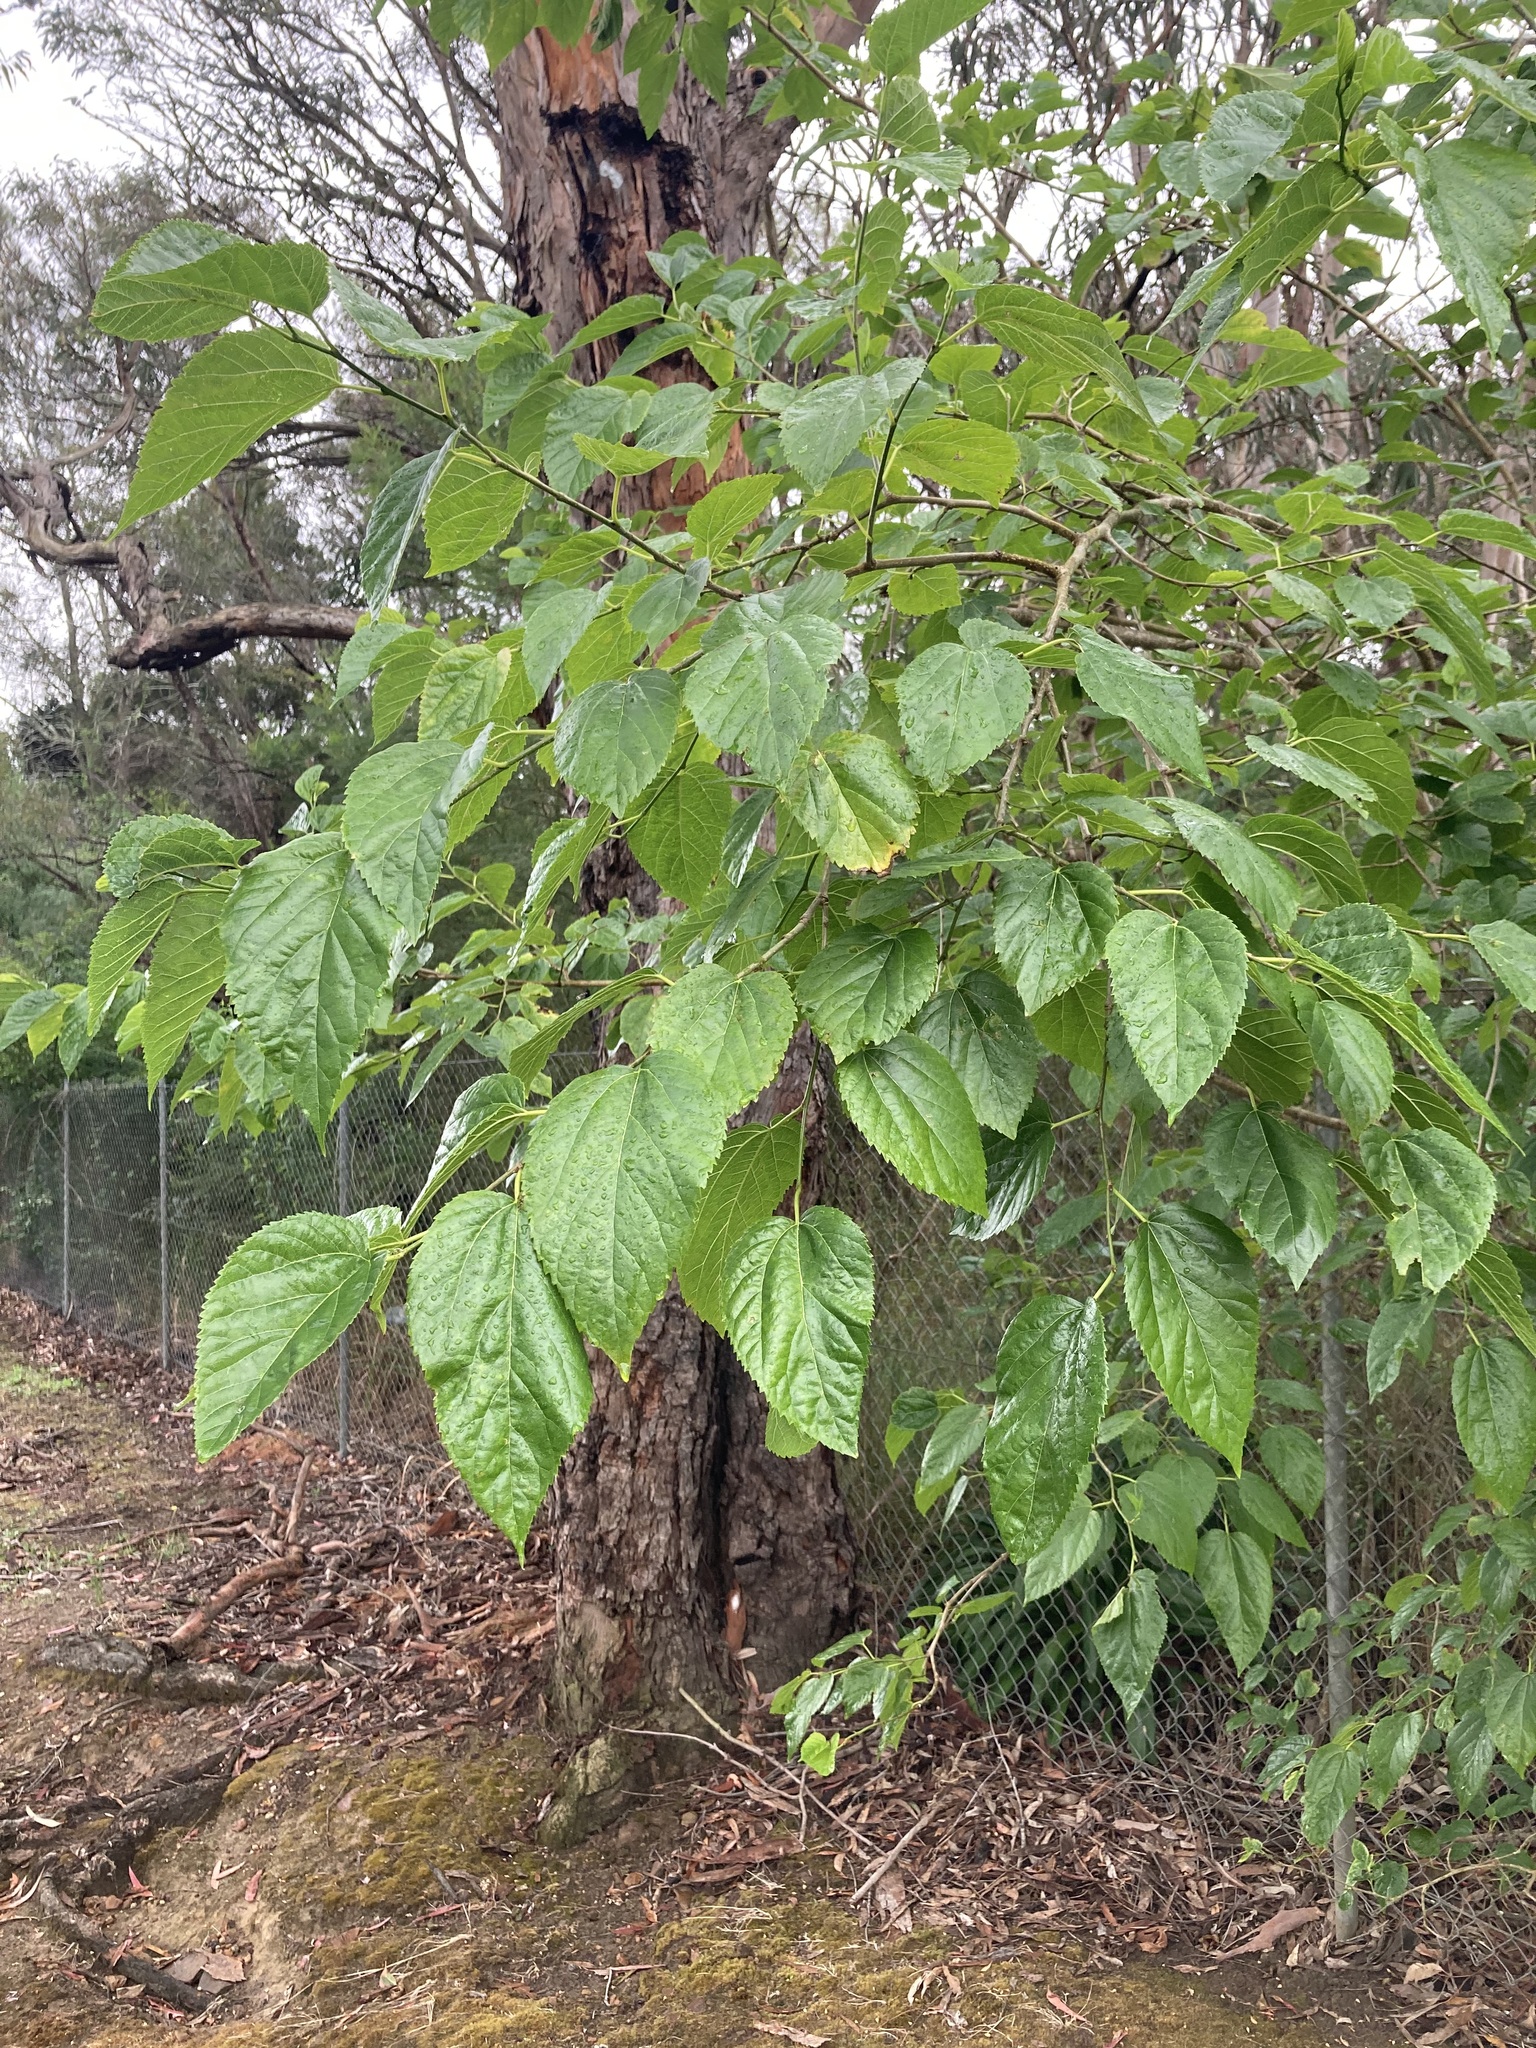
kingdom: Plantae
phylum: Tracheophyta
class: Magnoliopsida
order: Rosales
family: Moraceae
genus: Morus
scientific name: Morus alba
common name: White mulberry
